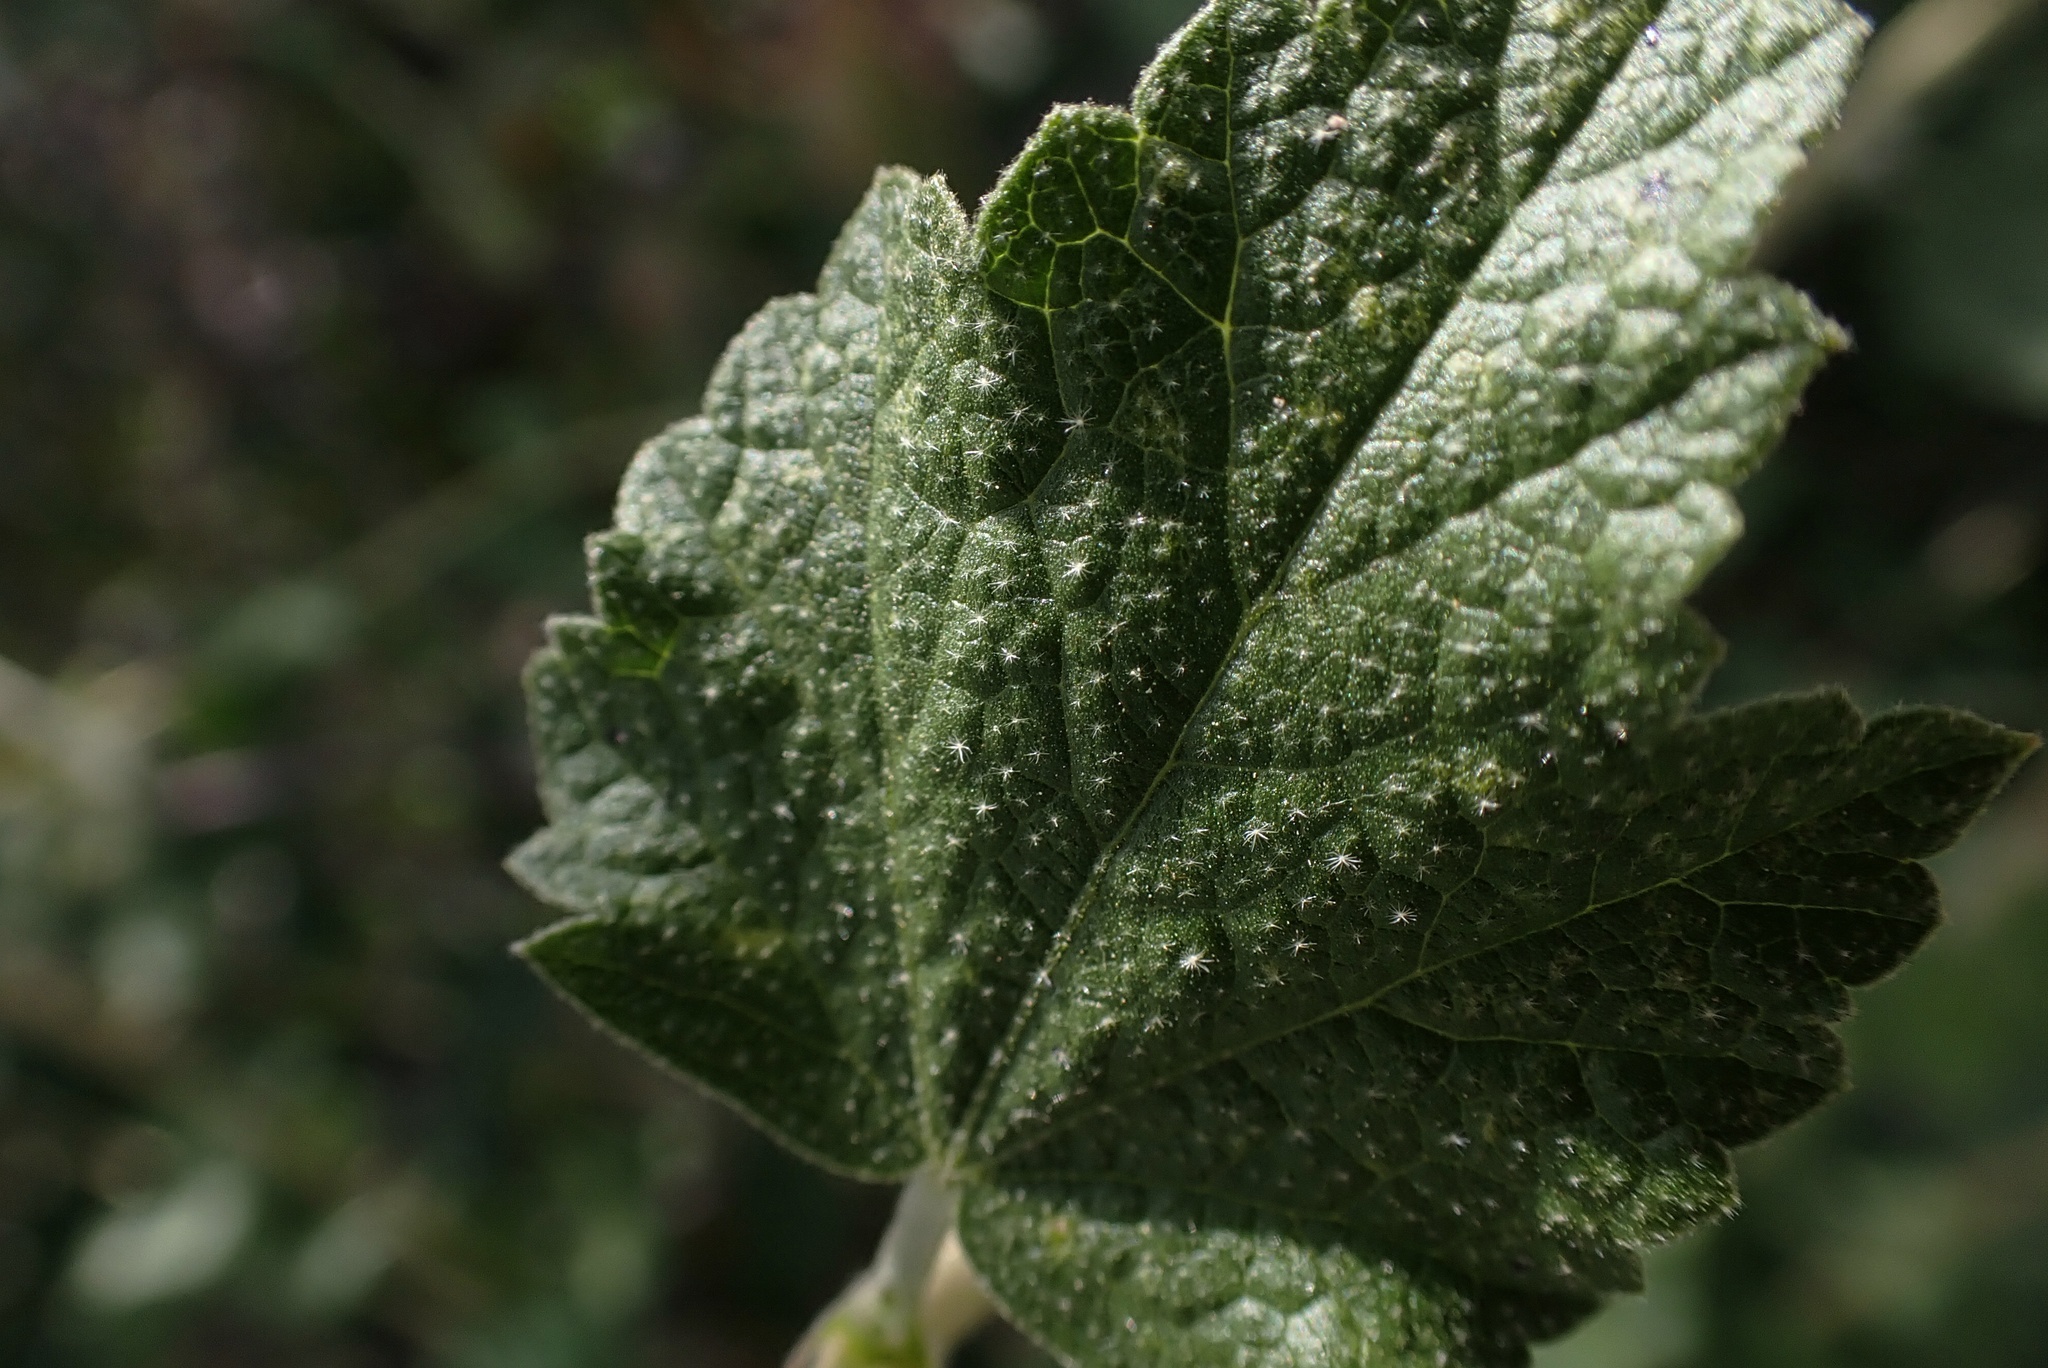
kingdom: Plantae
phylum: Tracheophyta
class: Magnoliopsida
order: Malvales
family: Malvaceae
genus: Malacothamnus
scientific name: Malacothamnus fasciculatus
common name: Sant cruz island bush-mallow
